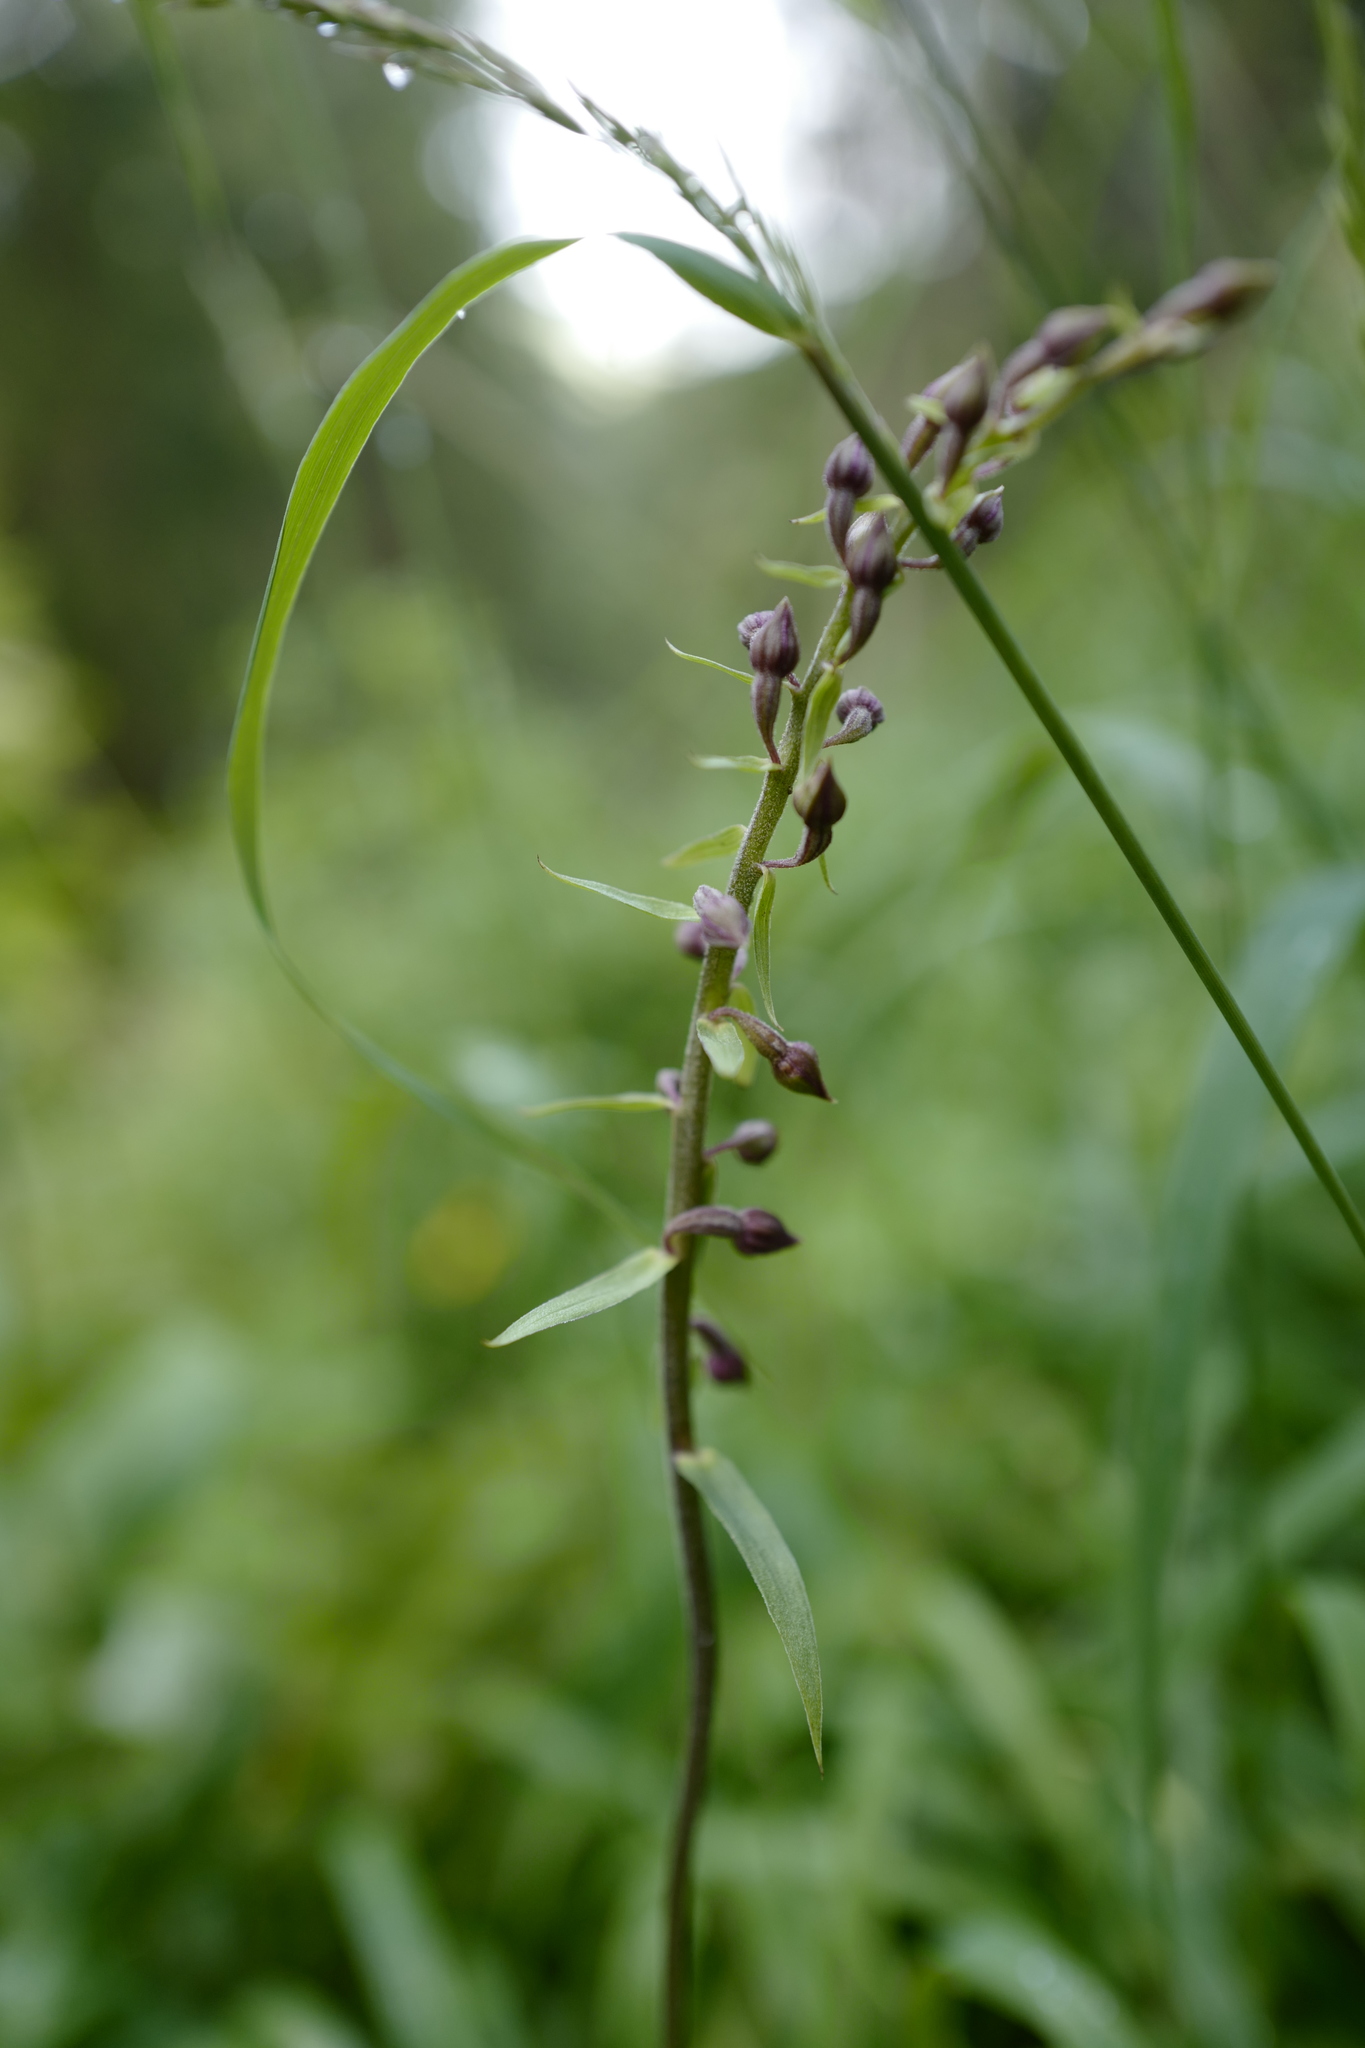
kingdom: Plantae
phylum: Tracheophyta
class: Liliopsida
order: Asparagales
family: Orchidaceae
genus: Epipactis
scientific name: Epipactis atrorubens
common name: Dark-red helleborine
